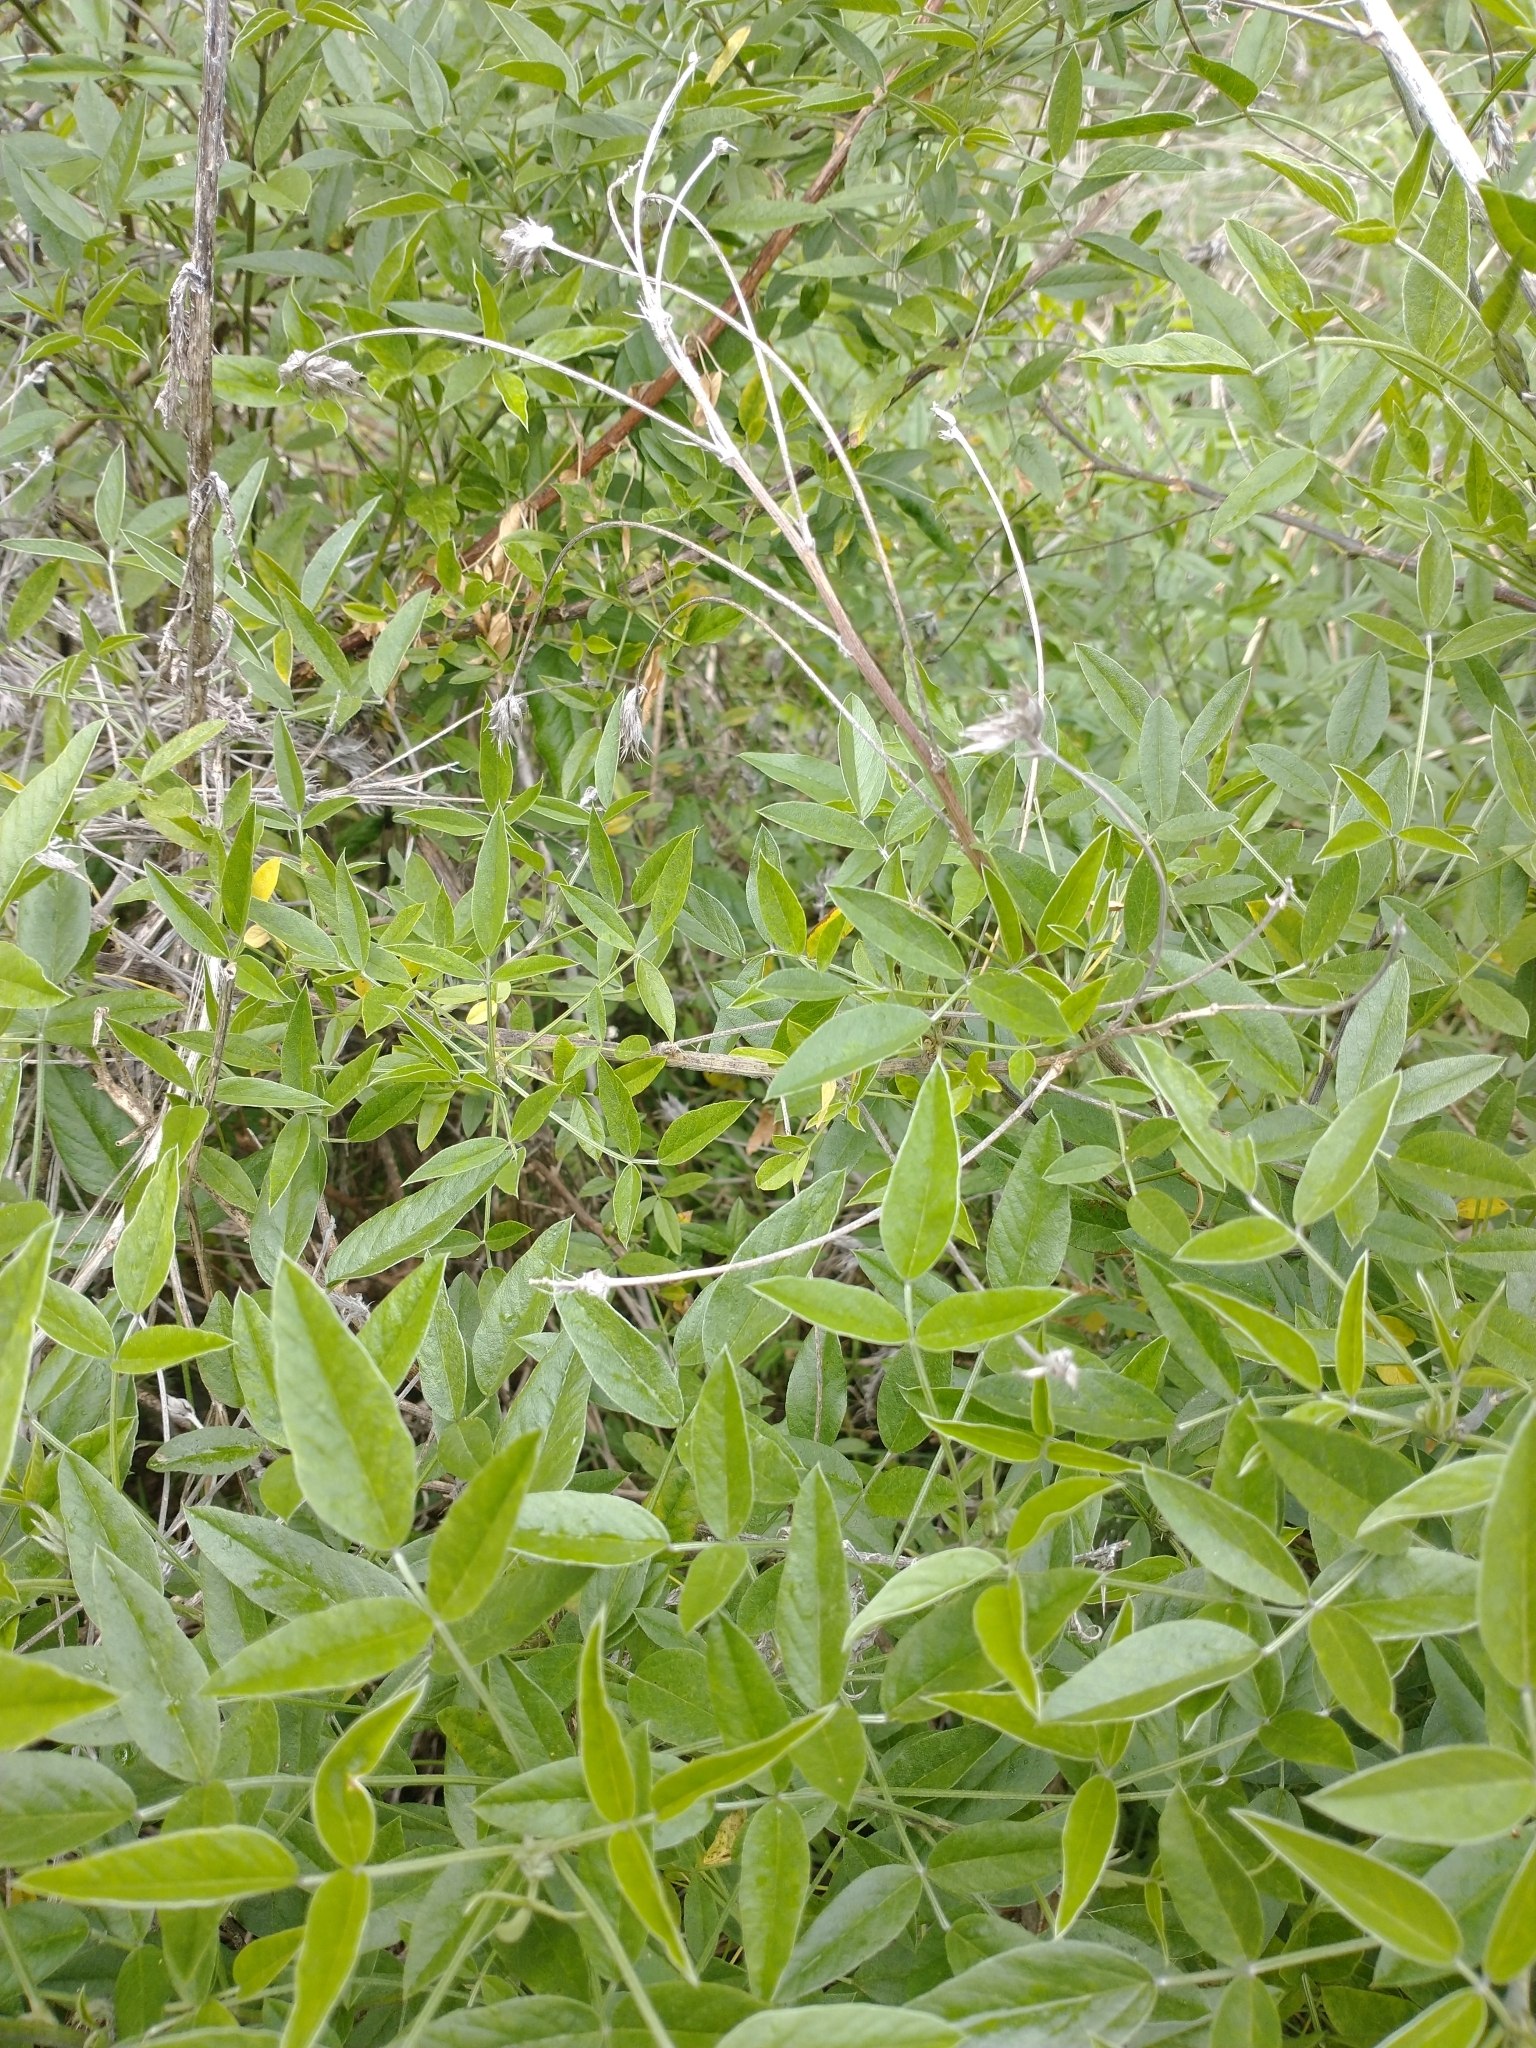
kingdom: Plantae
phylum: Tracheophyta
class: Magnoliopsida
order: Fabales
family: Fabaceae
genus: Bituminaria
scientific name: Bituminaria bituminosa
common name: Arabian pea
